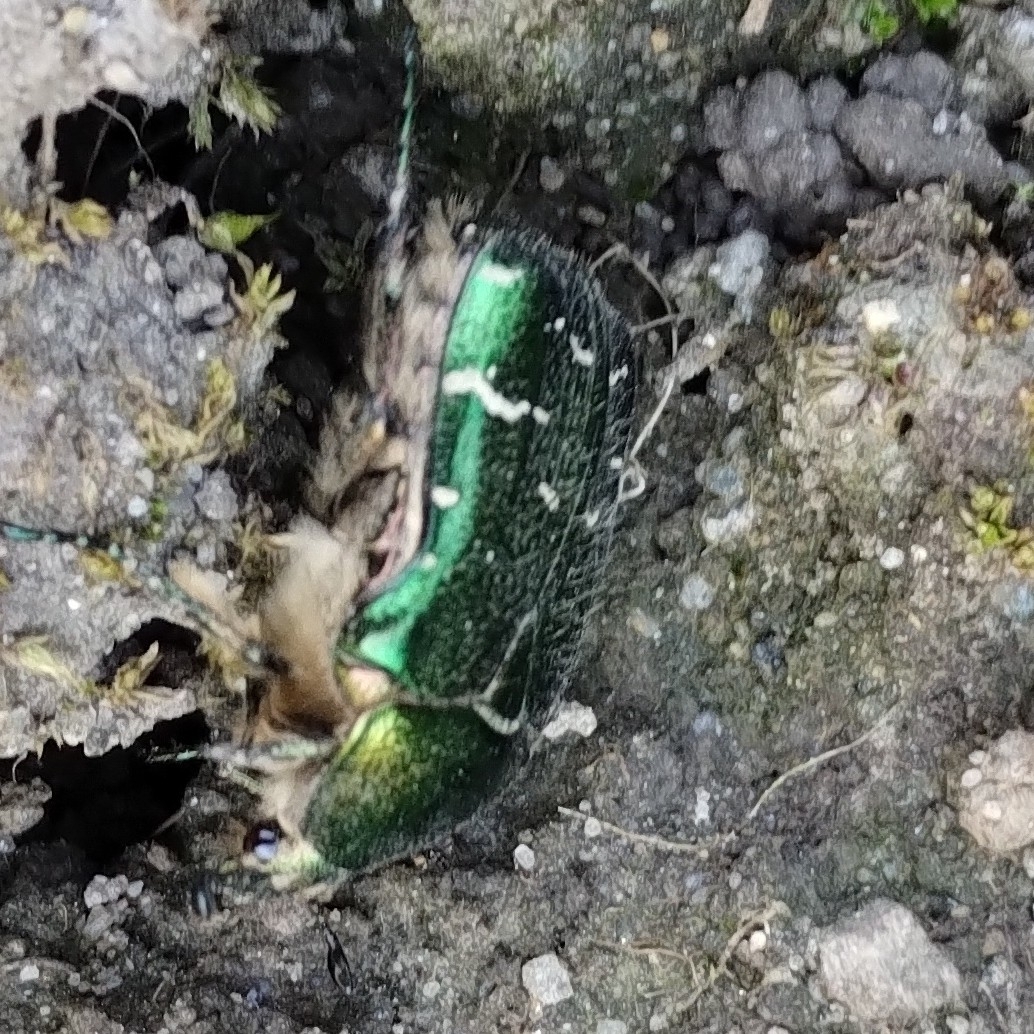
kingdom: Animalia
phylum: Arthropoda
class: Insecta
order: Coleoptera
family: Scarabaeidae
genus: Cetonia
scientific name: Cetonia aurata
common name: Rose chafer
